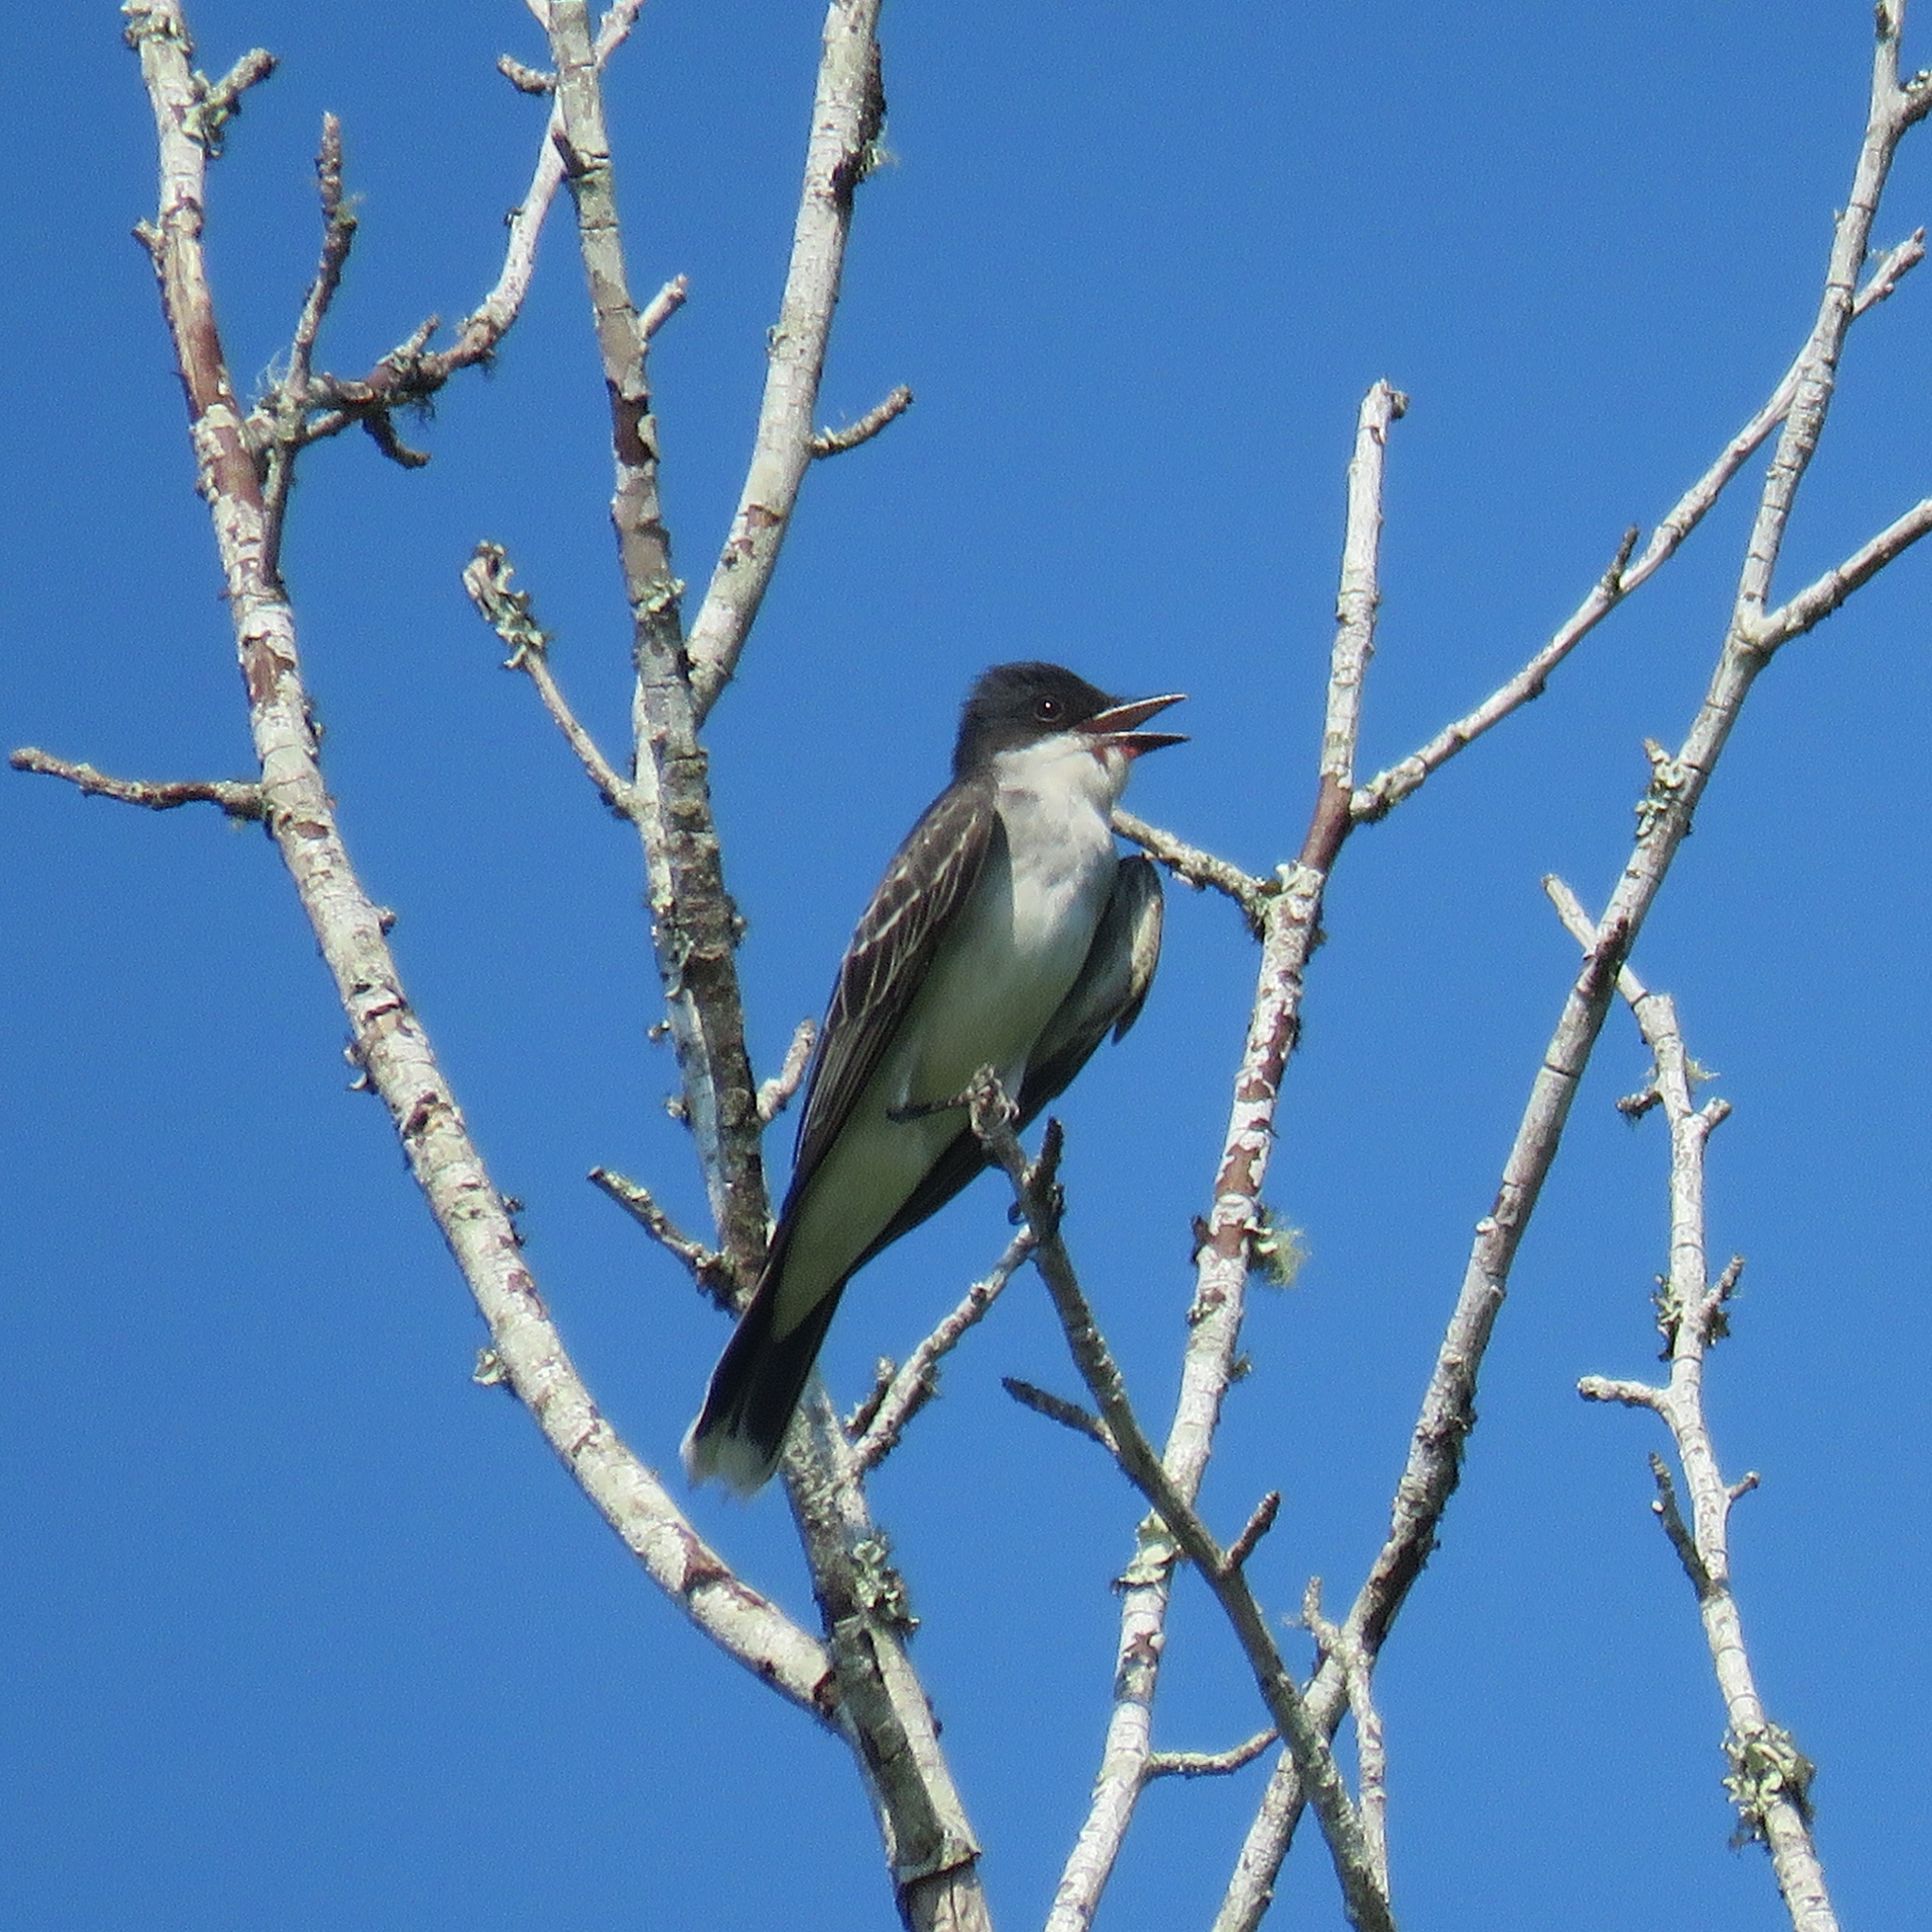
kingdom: Animalia
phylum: Chordata
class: Aves
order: Passeriformes
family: Tyrannidae
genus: Tyrannus
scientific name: Tyrannus tyrannus
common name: Eastern kingbird
